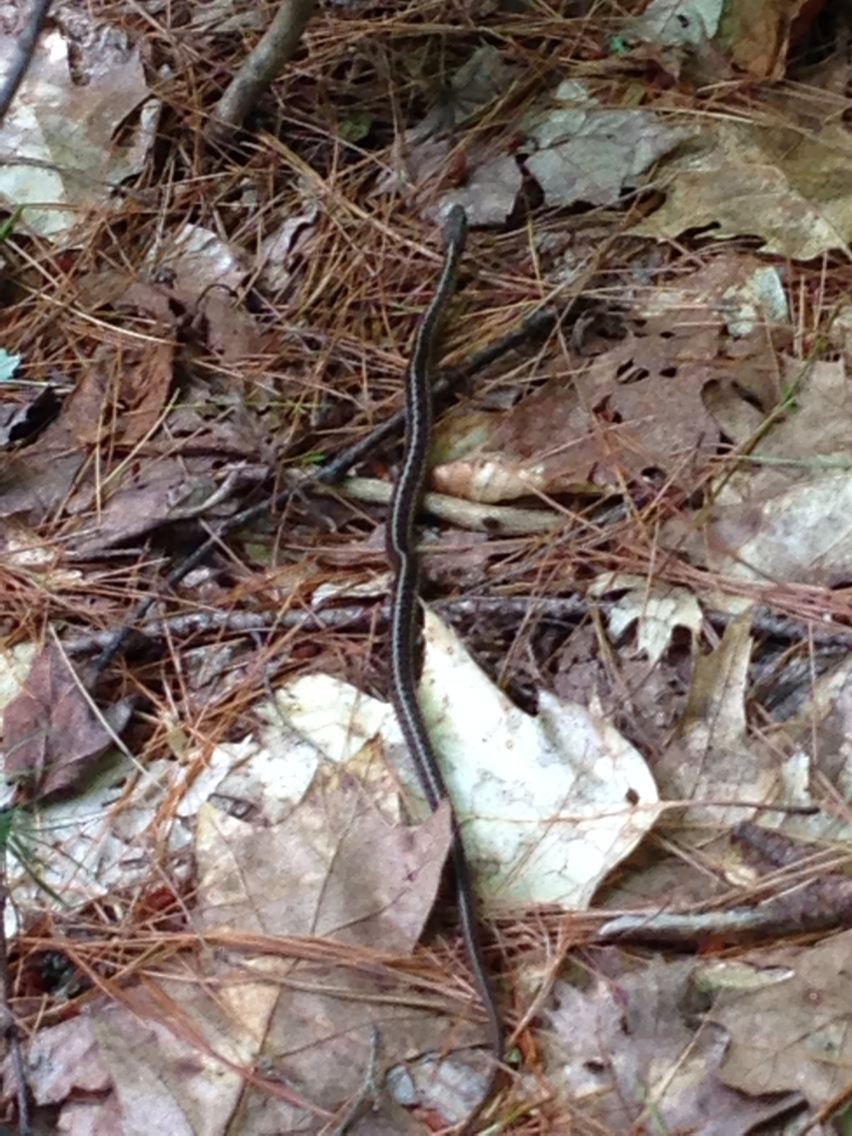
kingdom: Animalia
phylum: Chordata
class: Squamata
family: Colubridae
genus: Thamnophis
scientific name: Thamnophis sirtalis
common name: Common garter snake
